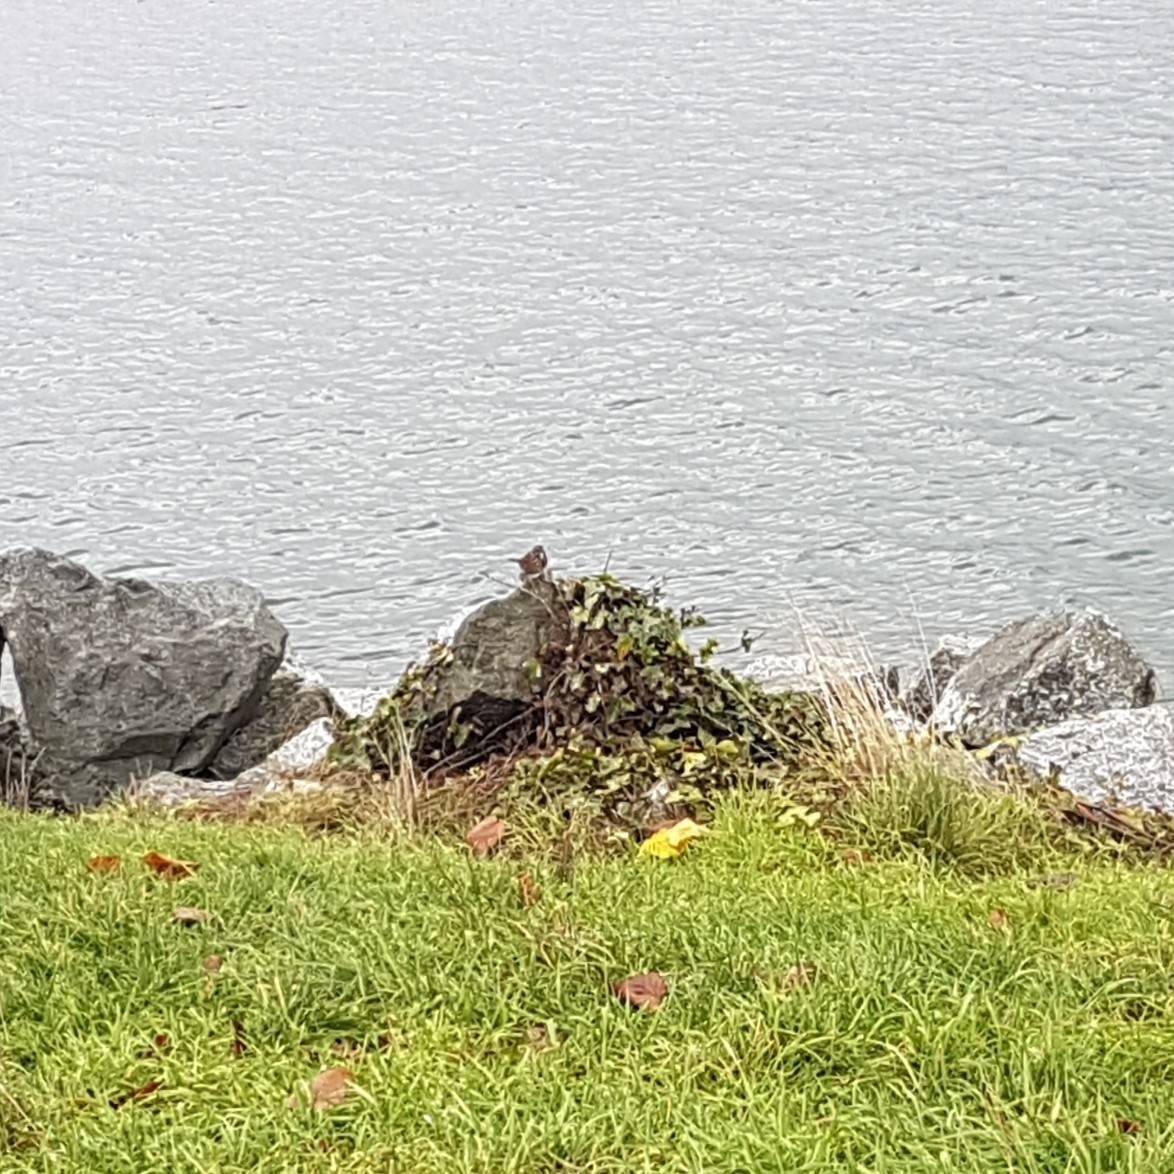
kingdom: Animalia
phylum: Chordata
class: Aves
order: Passeriformes
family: Passerellidae
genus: Melospiza
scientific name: Melospiza melodia
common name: Song sparrow
